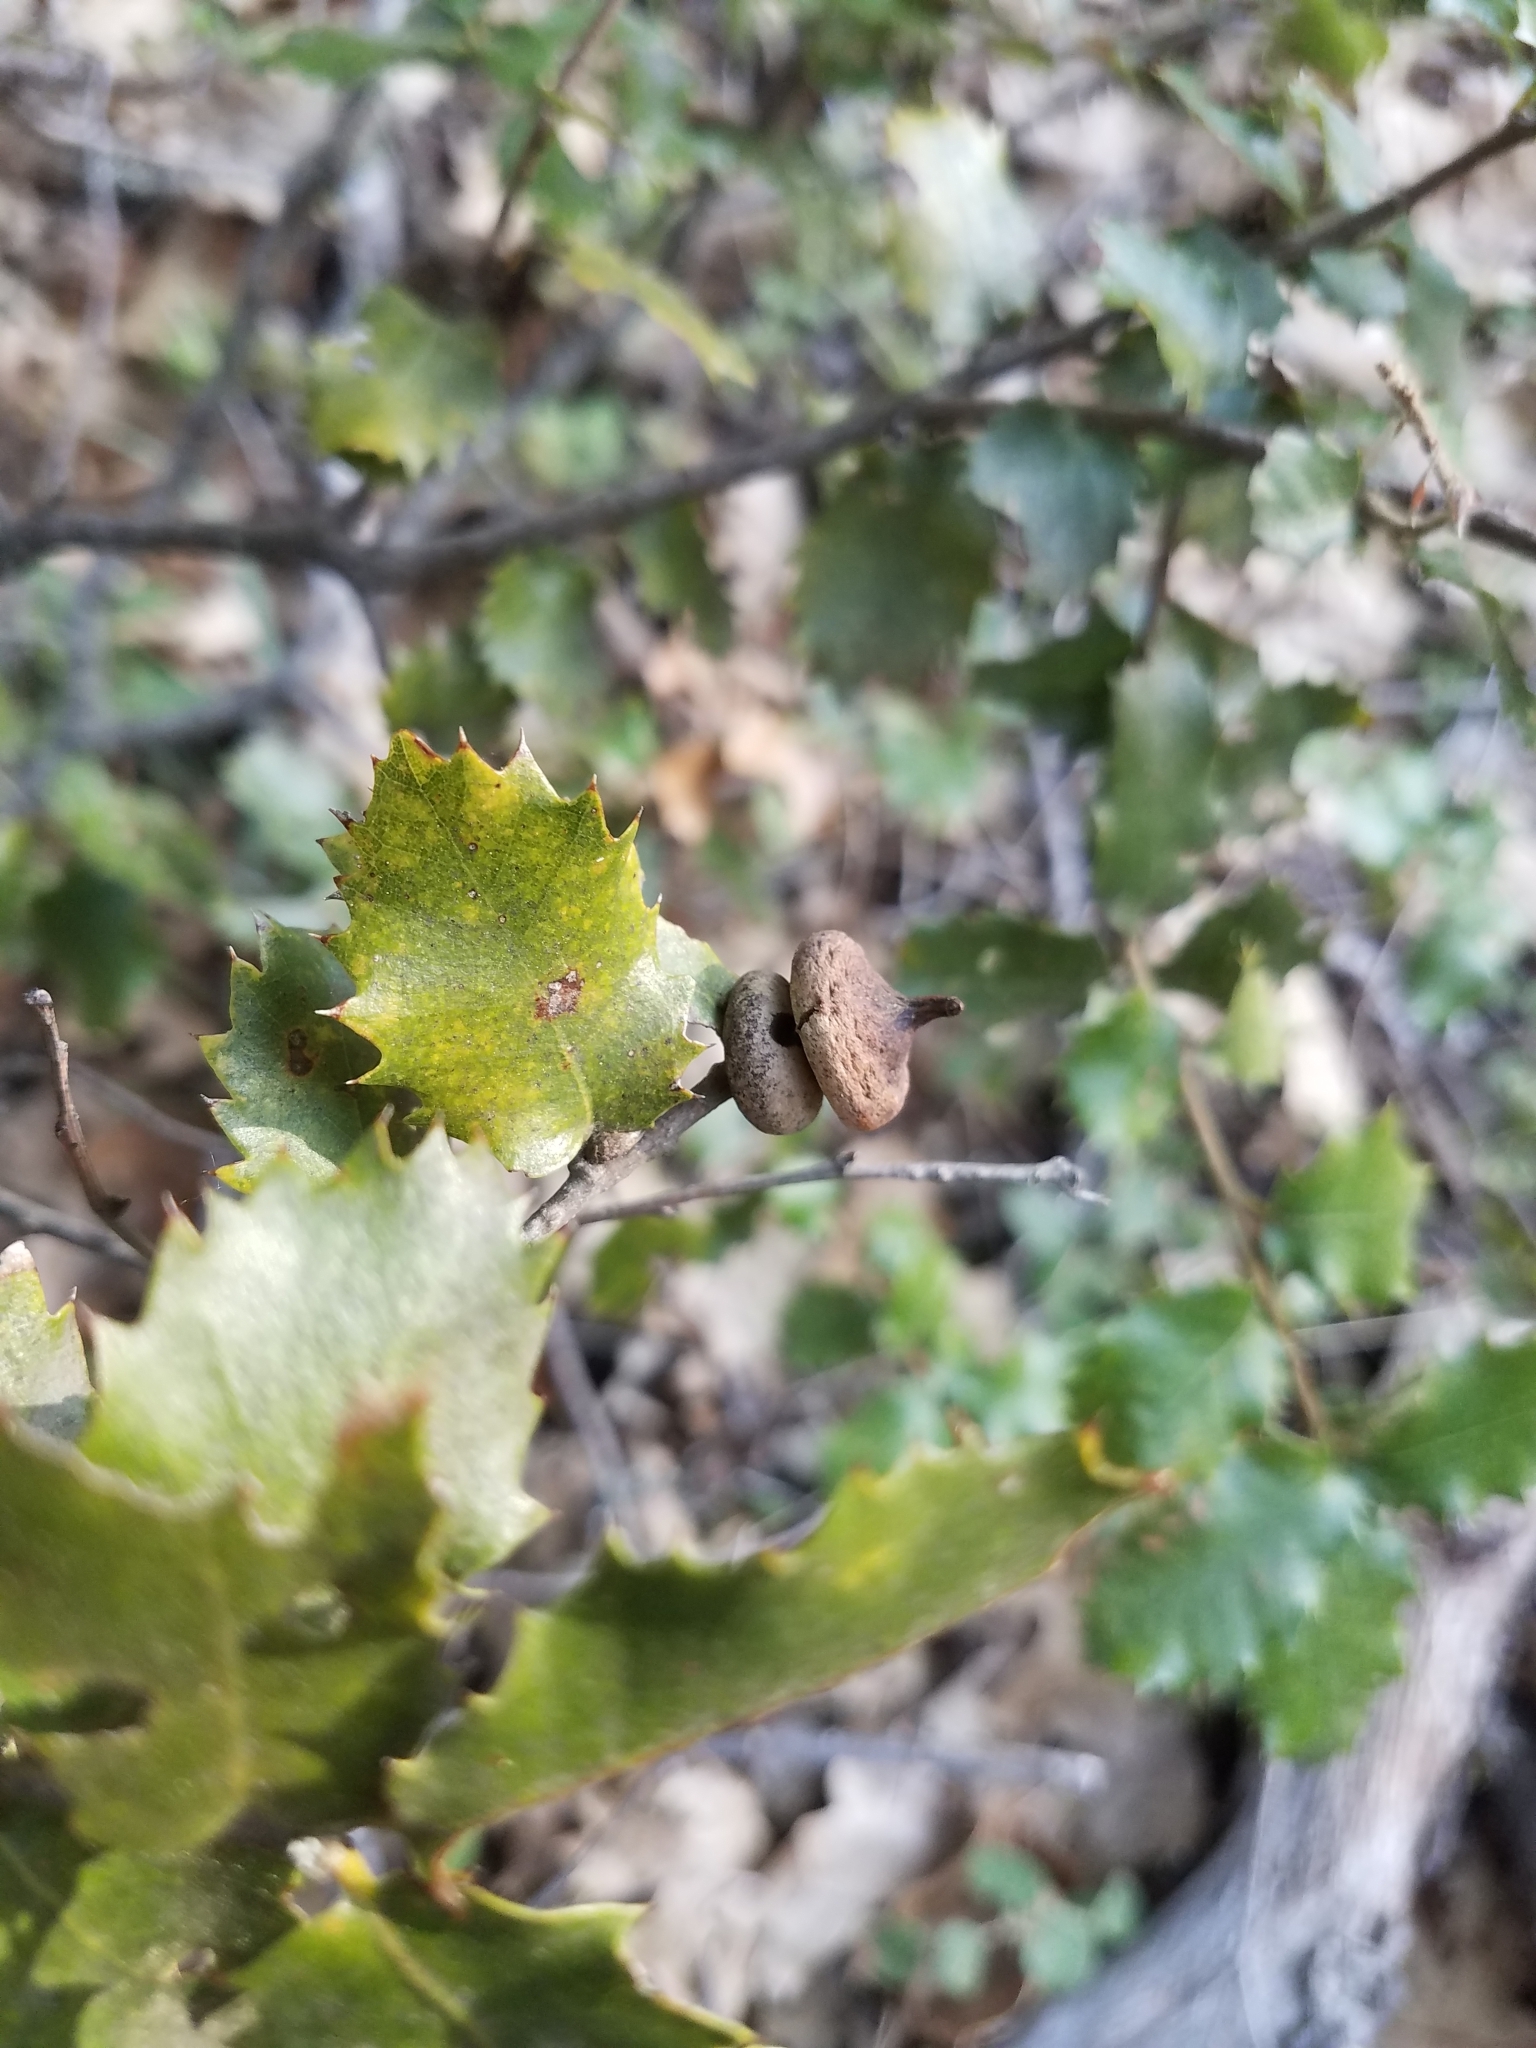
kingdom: Animalia
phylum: Arthropoda
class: Insecta
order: Hymenoptera
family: Cynipidae
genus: Heteroecus
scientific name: Heteroecus
